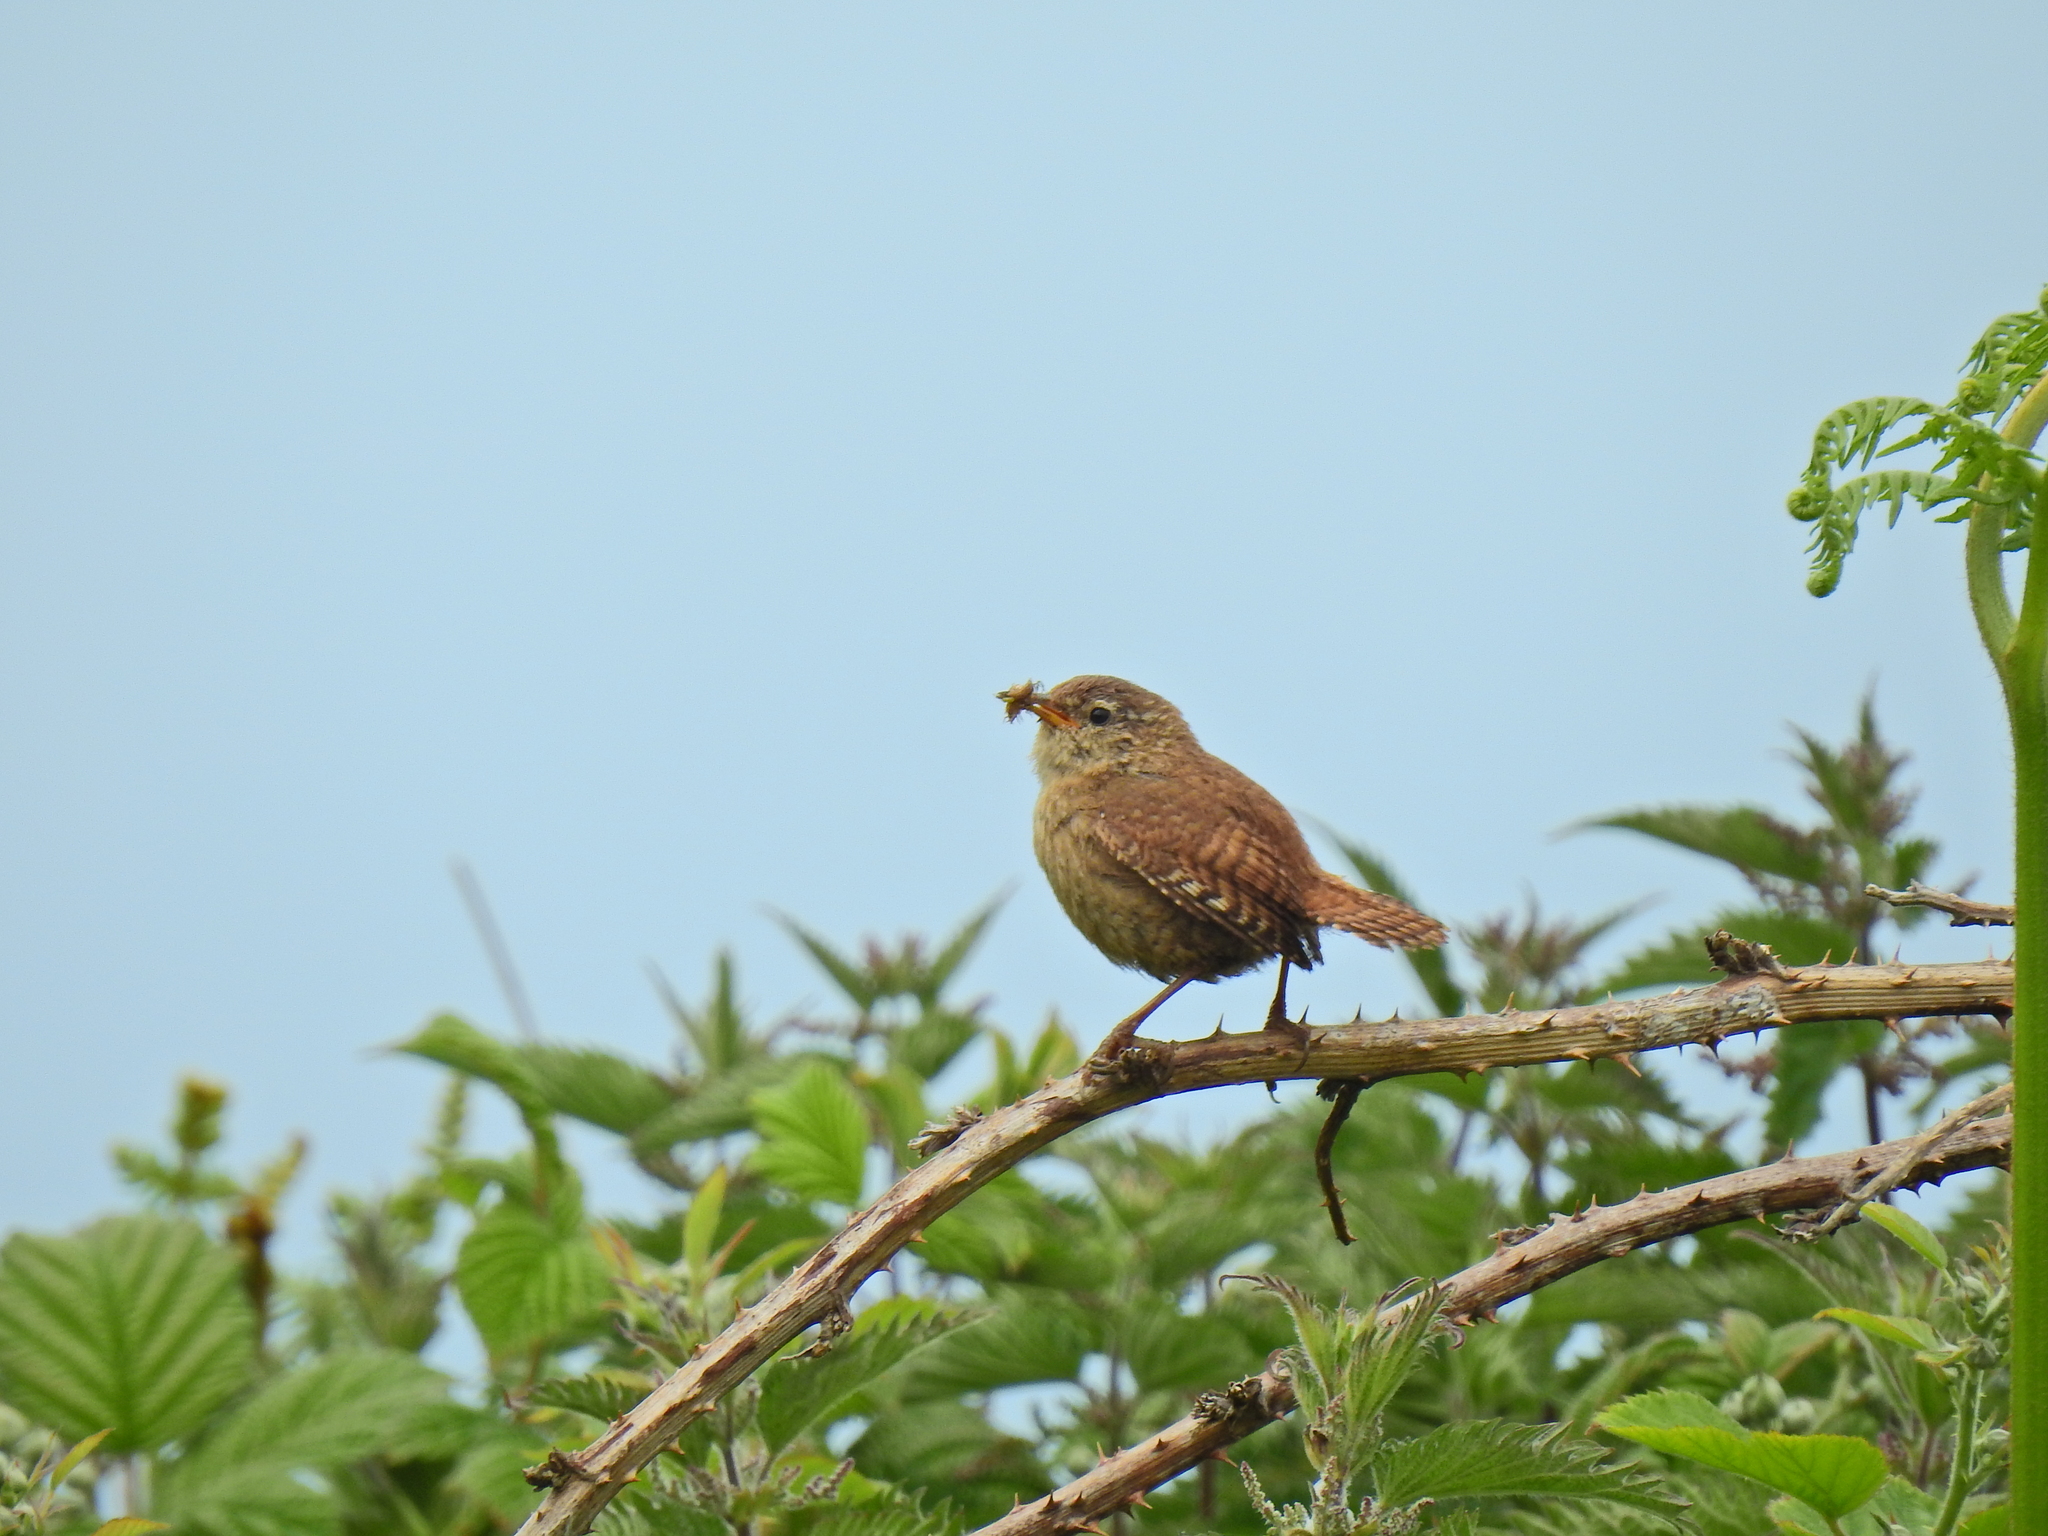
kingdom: Animalia
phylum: Chordata
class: Aves
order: Passeriformes
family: Troglodytidae
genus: Troglodytes
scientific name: Troglodytes troglodytes
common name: Eurasian wren
